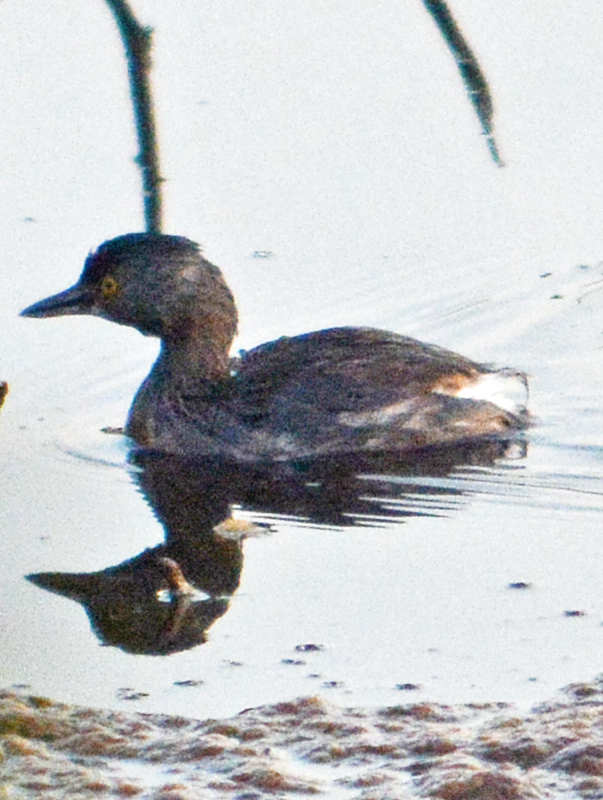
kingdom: Animalia
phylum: Chordata
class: Aves
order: Podicipediformes
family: Podicipedidae
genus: Tachybaptus
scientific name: Tachybaptus dominicus
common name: Least grebe
